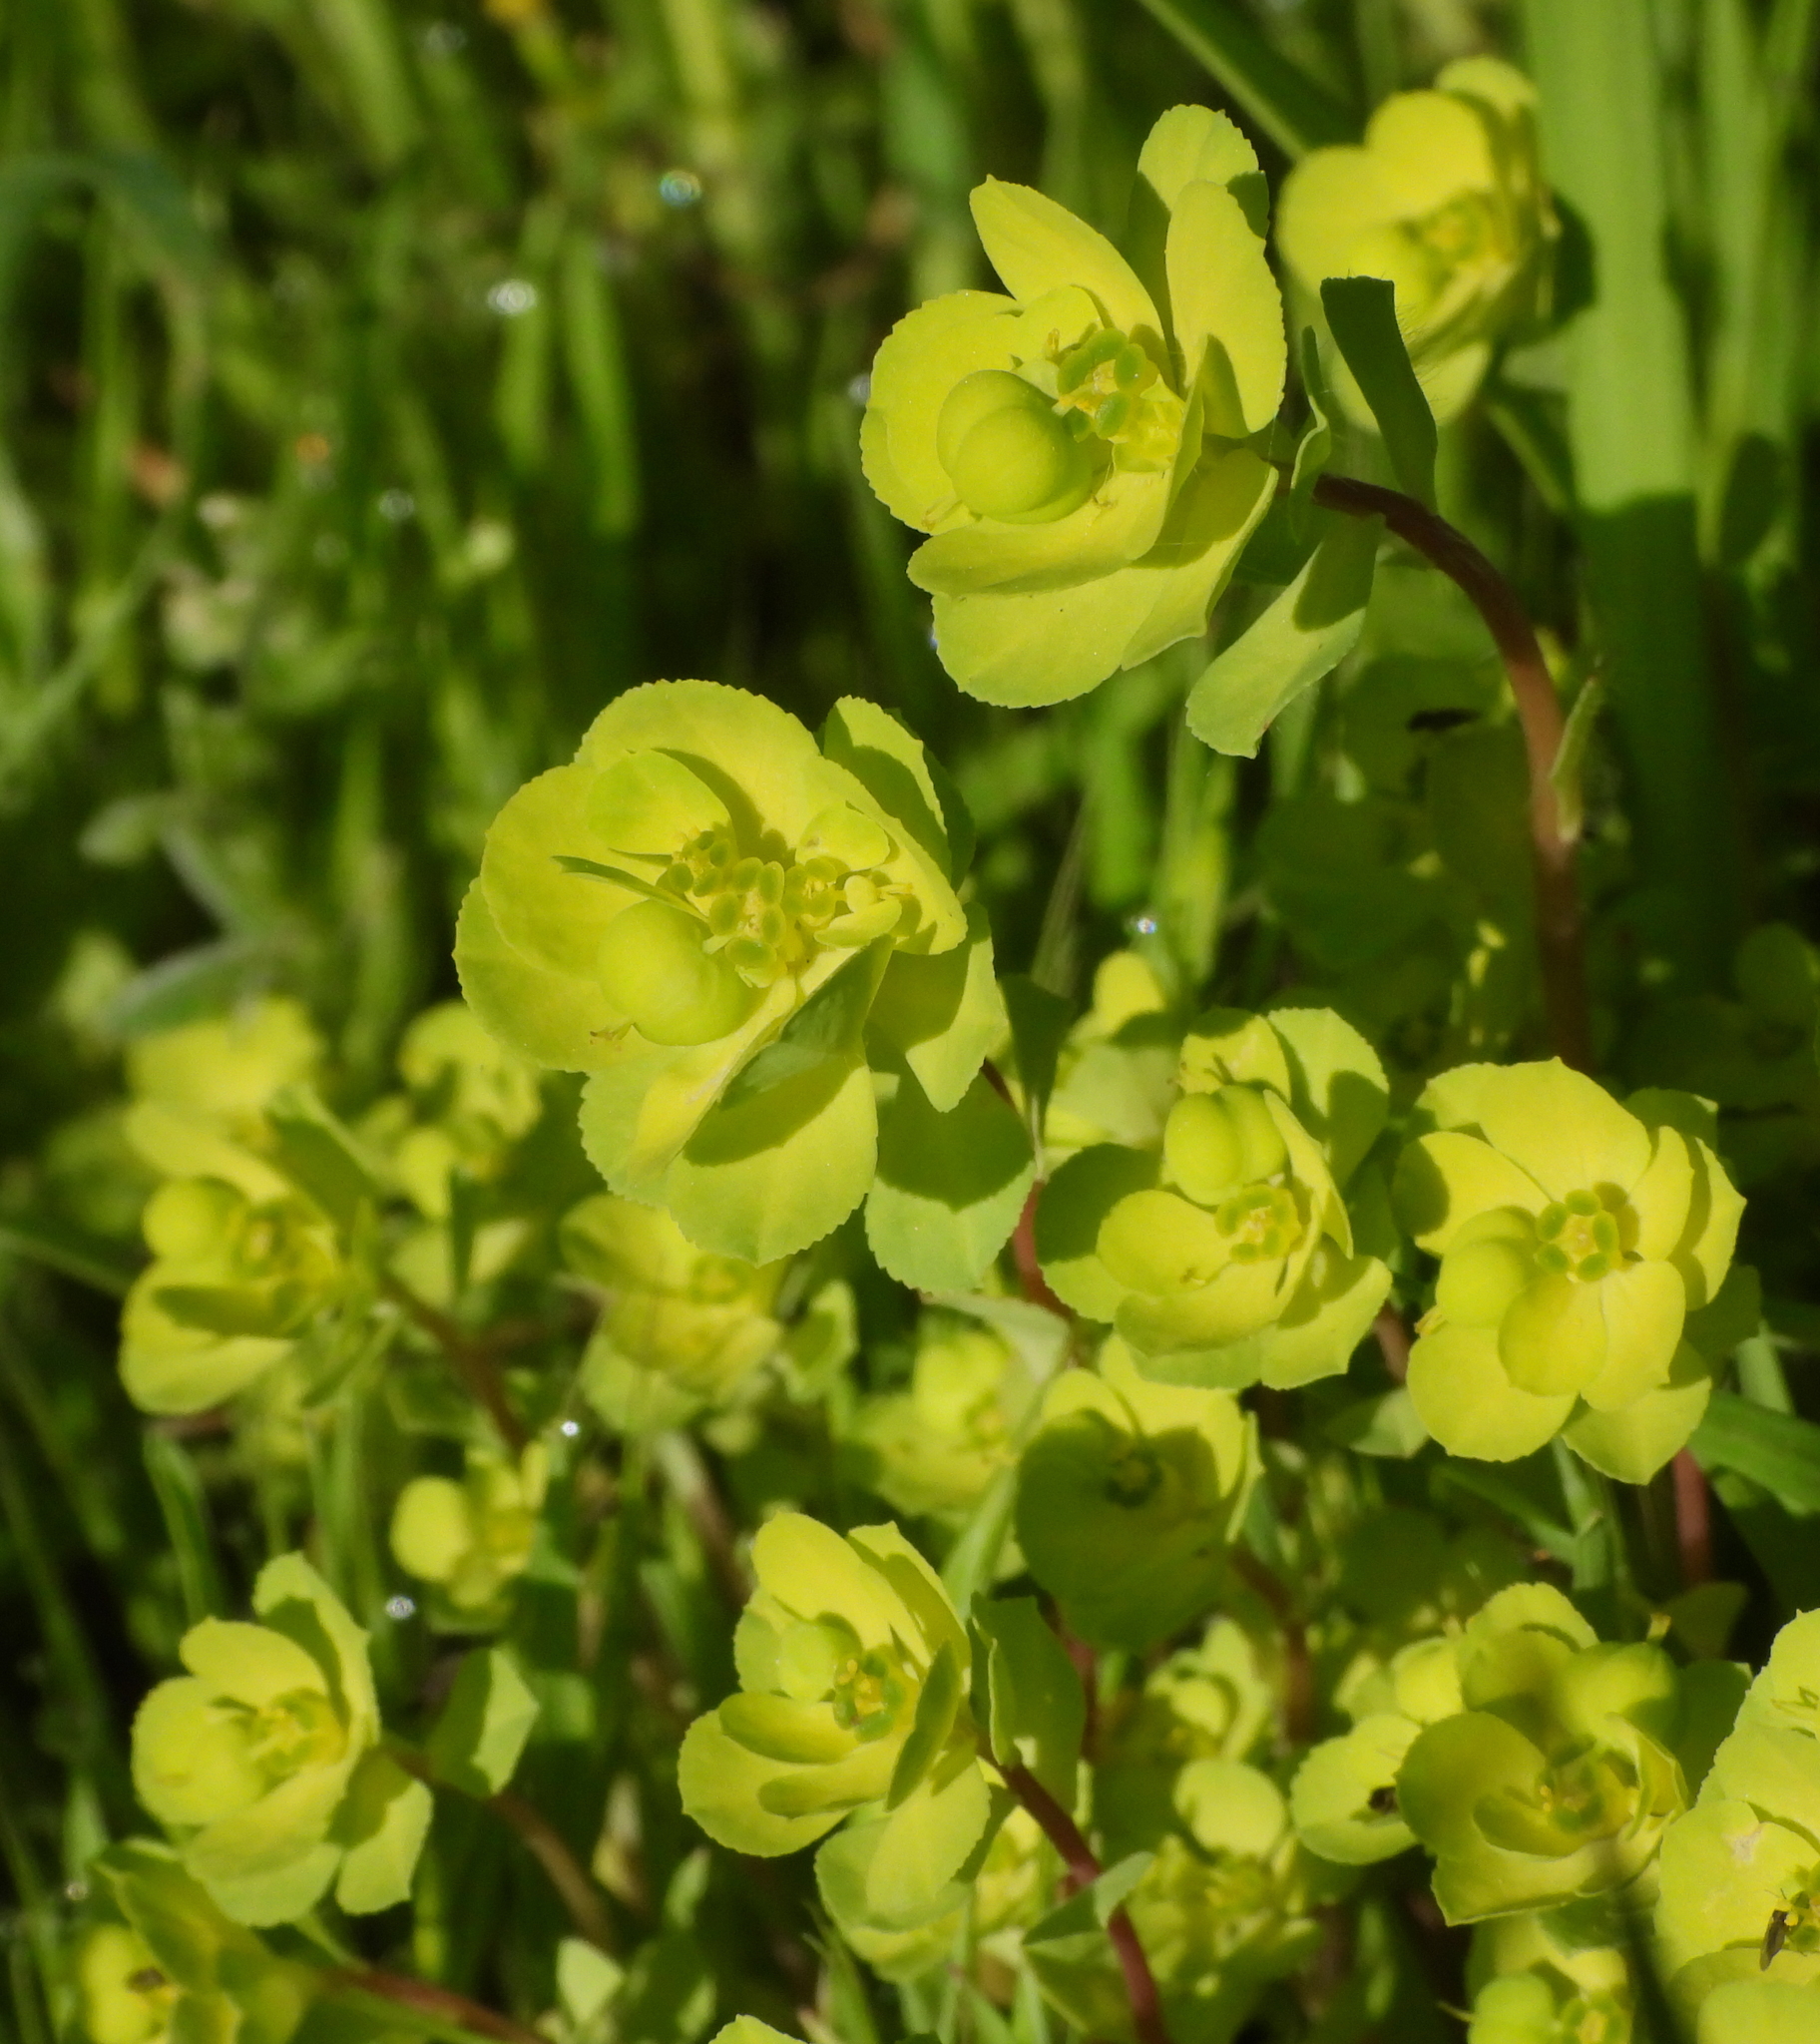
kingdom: Plantae
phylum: Tracheophyta
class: Magnoliopsida
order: Malpighiales
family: Euphorbiaceae
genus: Euphorbia
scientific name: Euphorbia helioscopia
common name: Sun spurge
